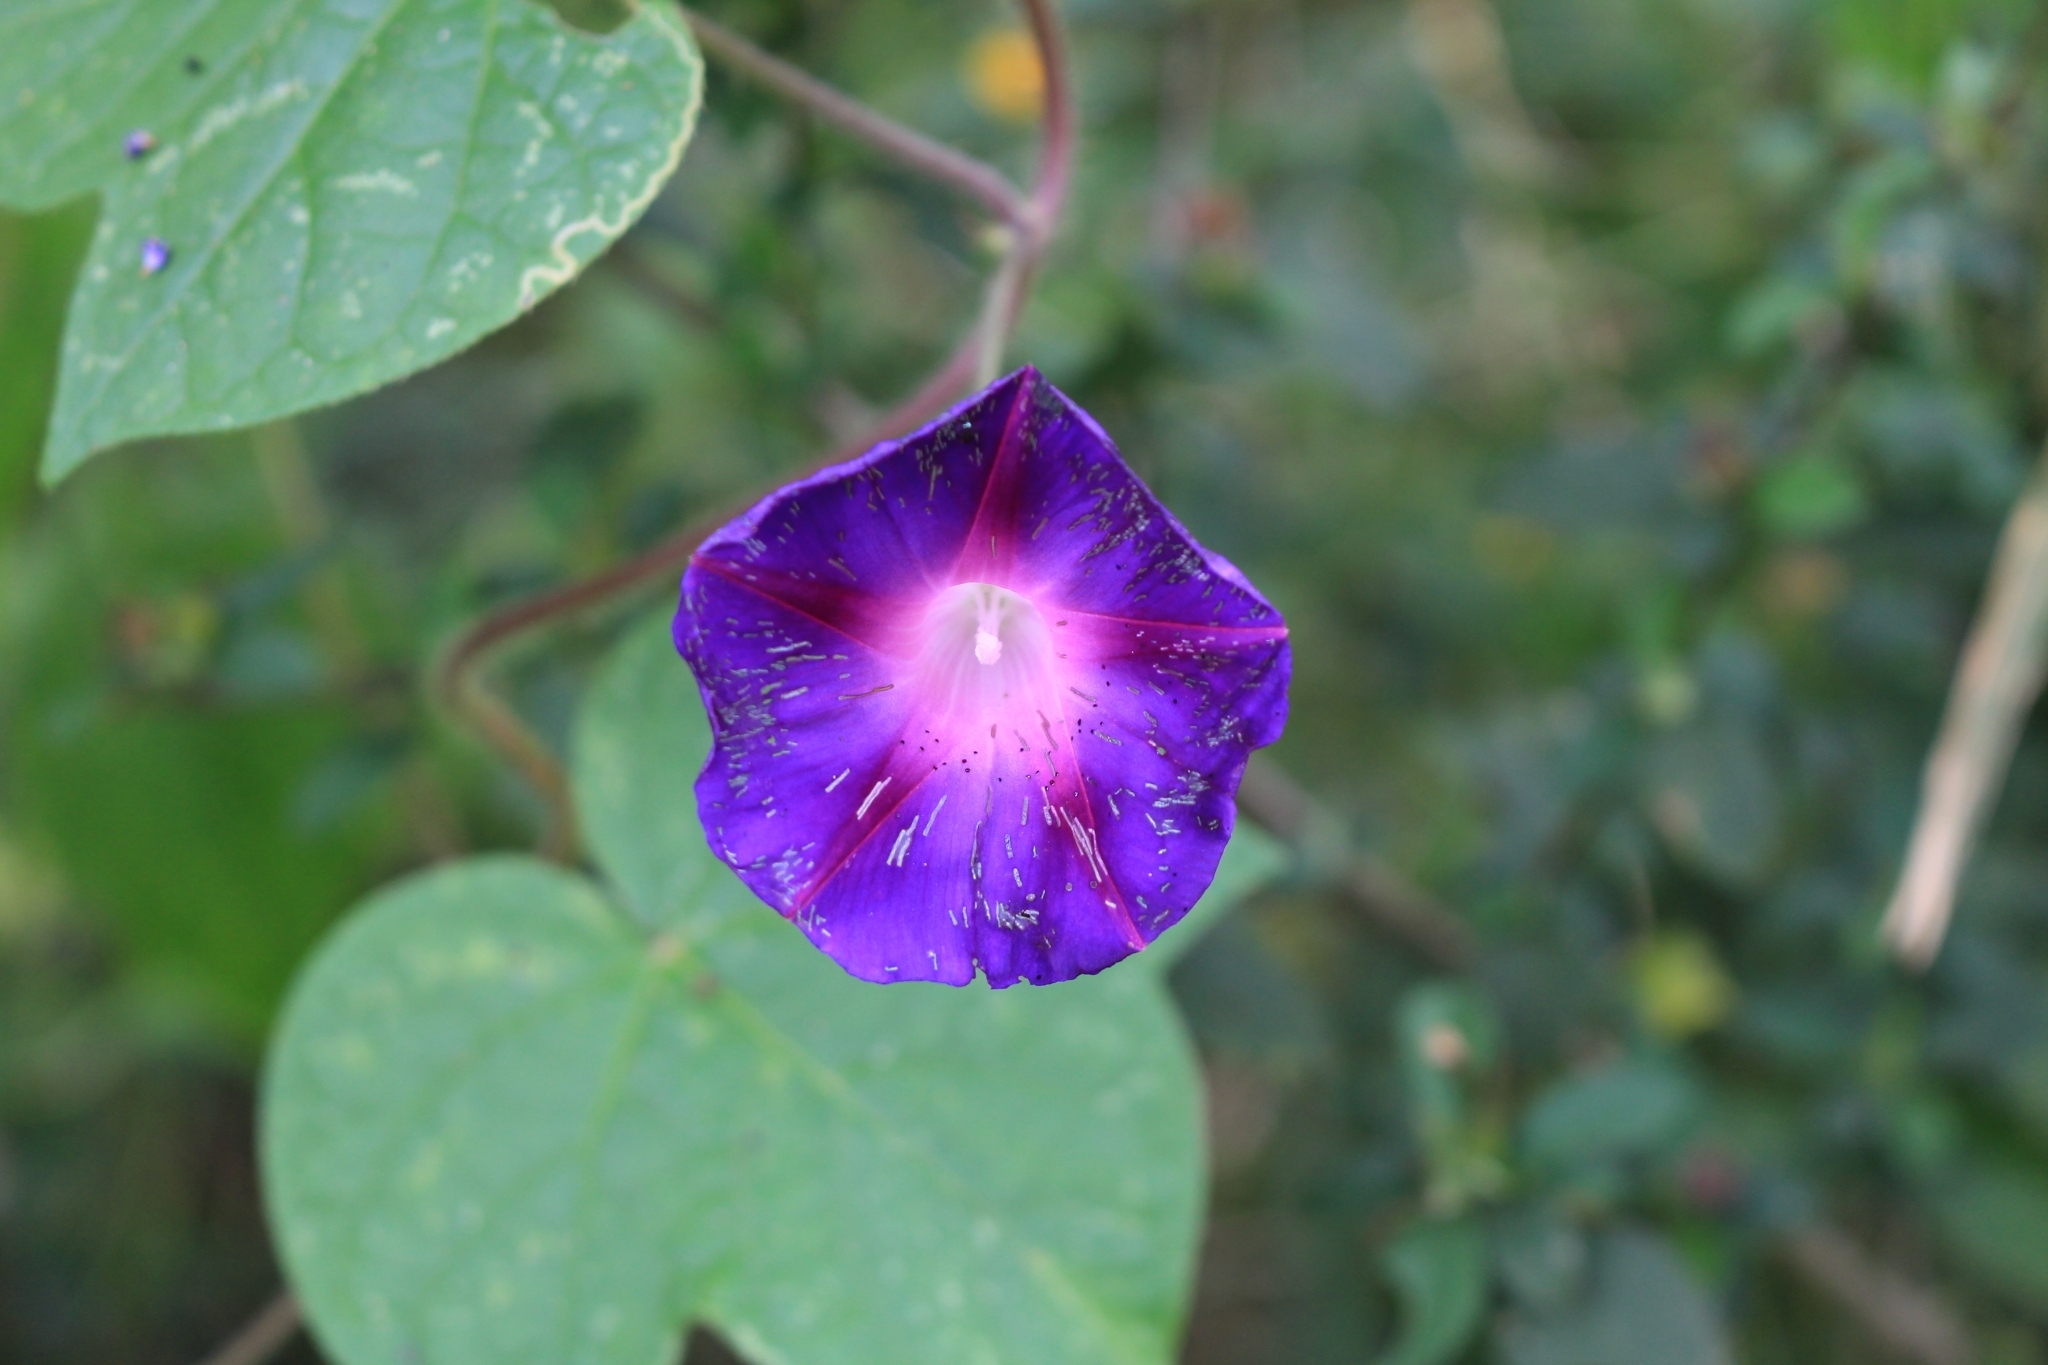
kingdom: Plantae
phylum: Tracheophyta
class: Magnoliopsida
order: Solanales
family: Convolvulaceae
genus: Ipomoea
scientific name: Ipomoea purpurea
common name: Common morning-glory
